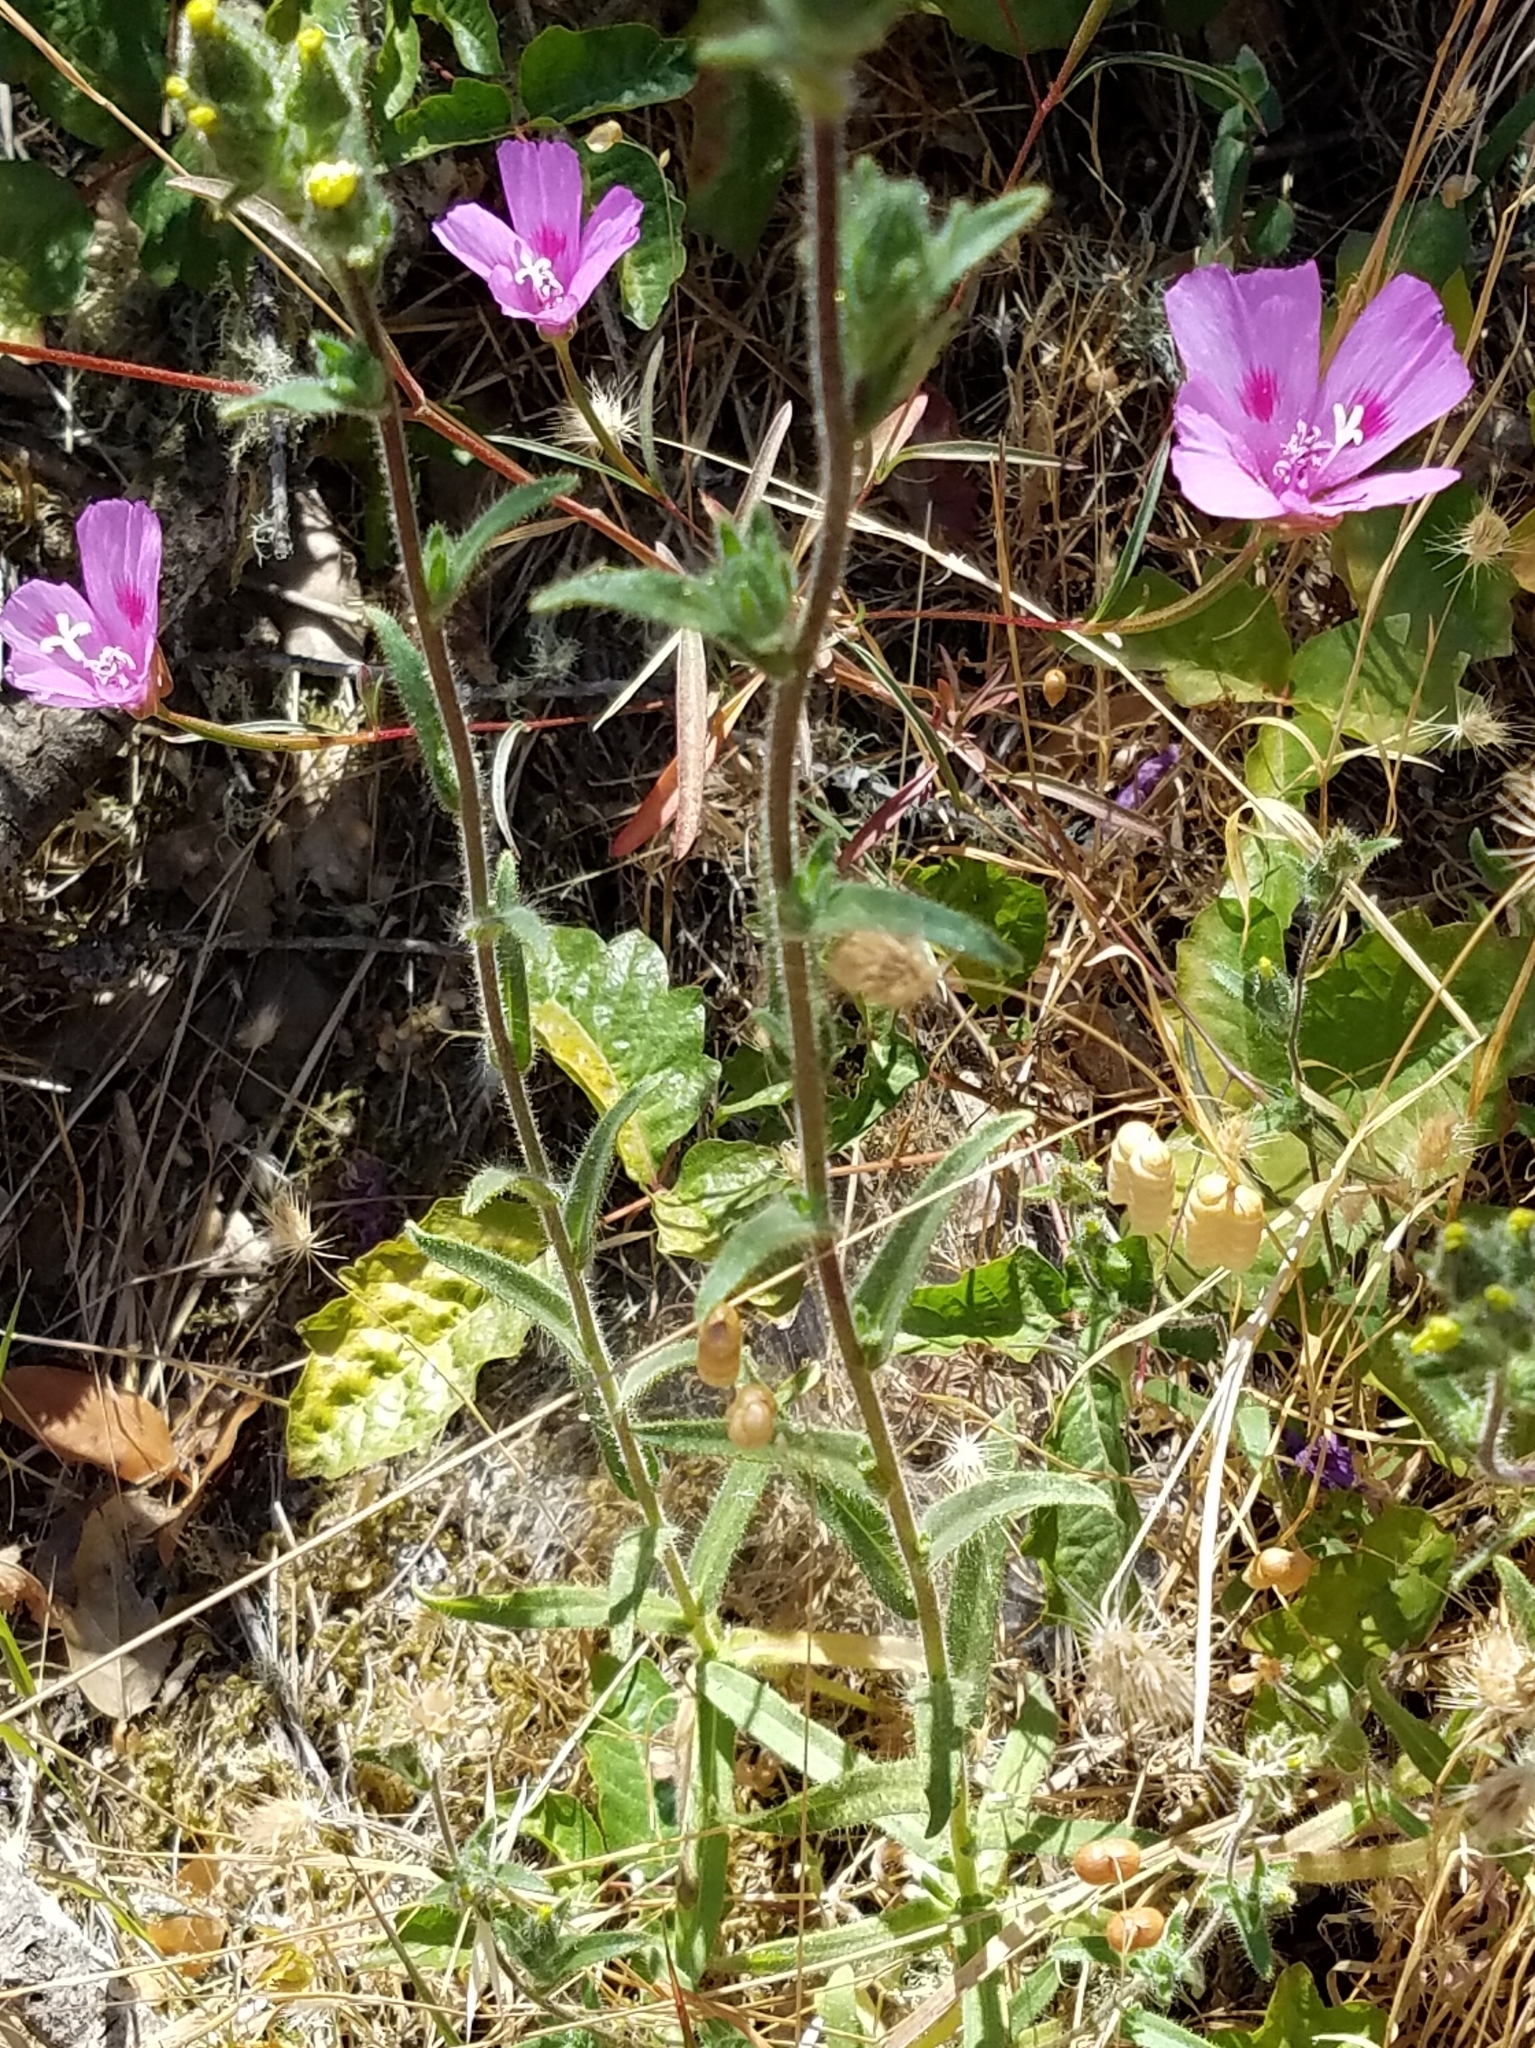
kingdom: Plantae
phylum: Tracheophyta
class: Magnoliopsida
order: Myrtales
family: Onagraceae
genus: Clarkia
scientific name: Clarkia amoena
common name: Godetia
